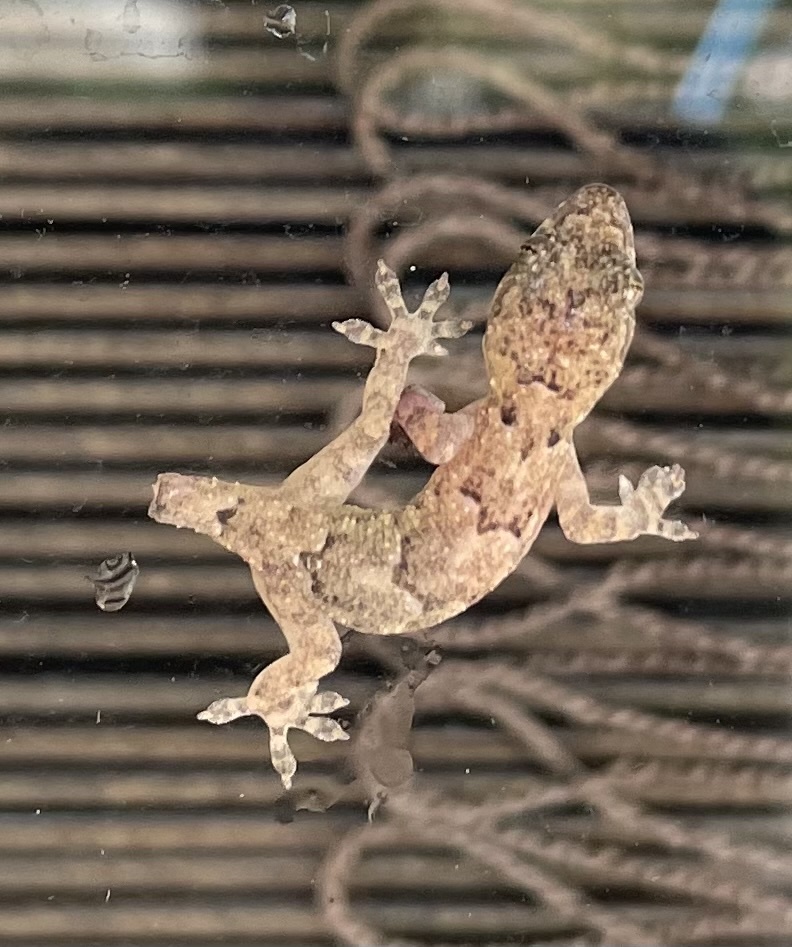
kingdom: Animalia
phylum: Chordata
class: Squamata
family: Gekkonidae
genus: Hemidactylus
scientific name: Hemidactylus mabouia
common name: House gecko
